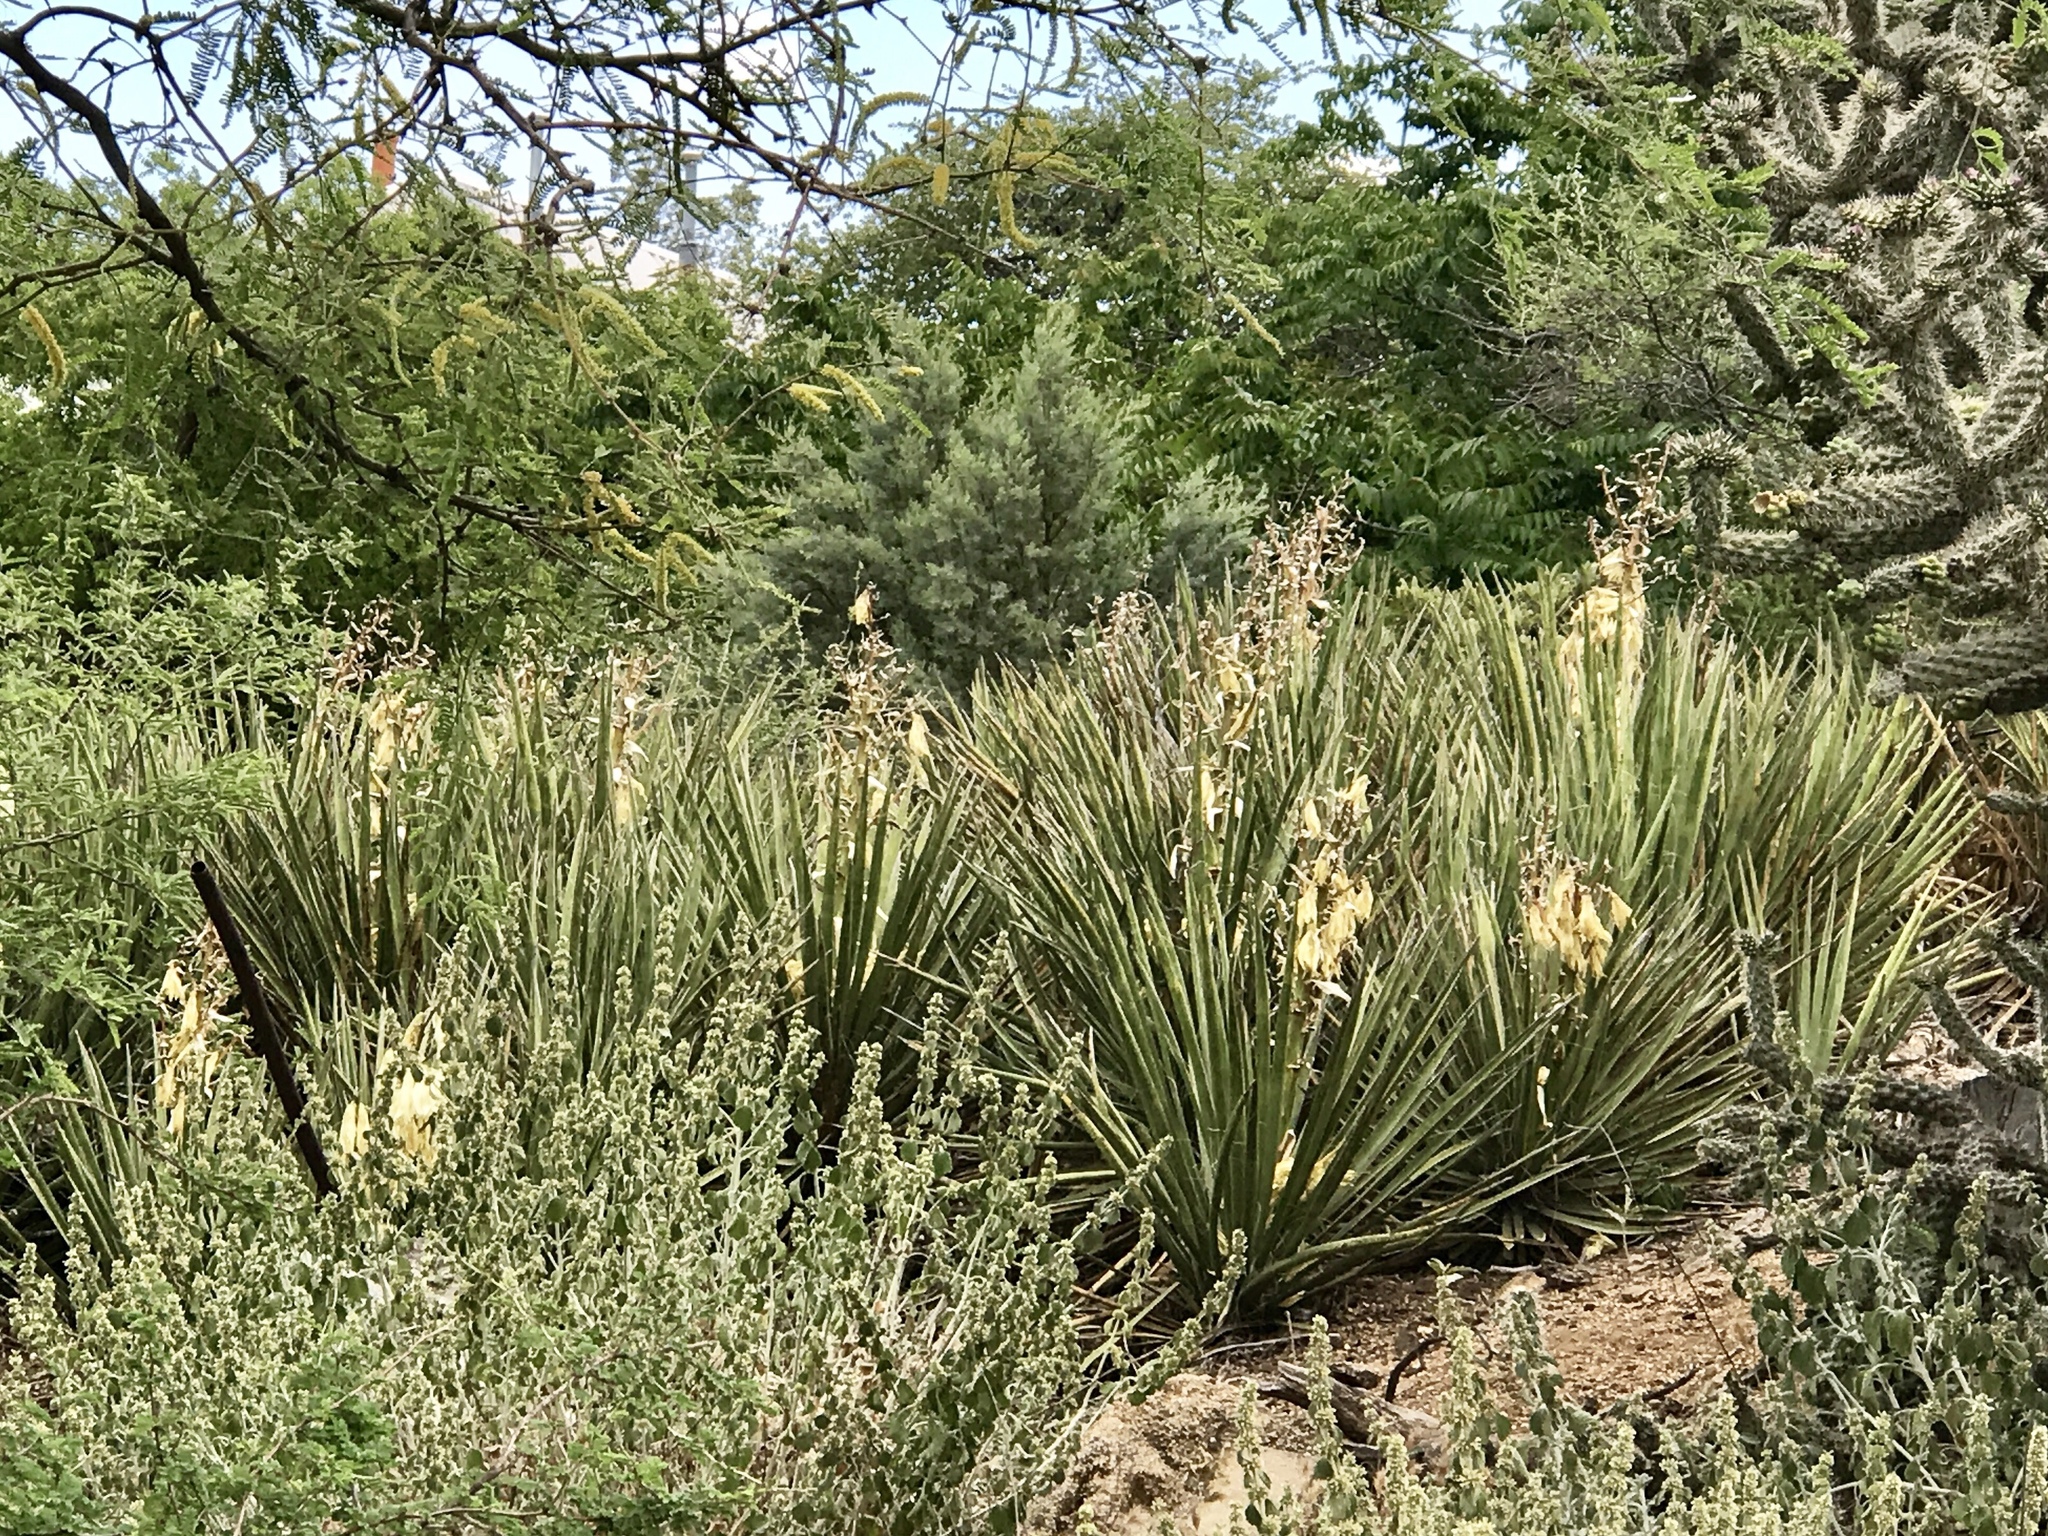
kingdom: Plantae
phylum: Tracheophyta
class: Liliopsida
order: Asparagales
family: Asparagaceae
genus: Yucca
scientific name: Yucca baccata
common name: Banana yucca
